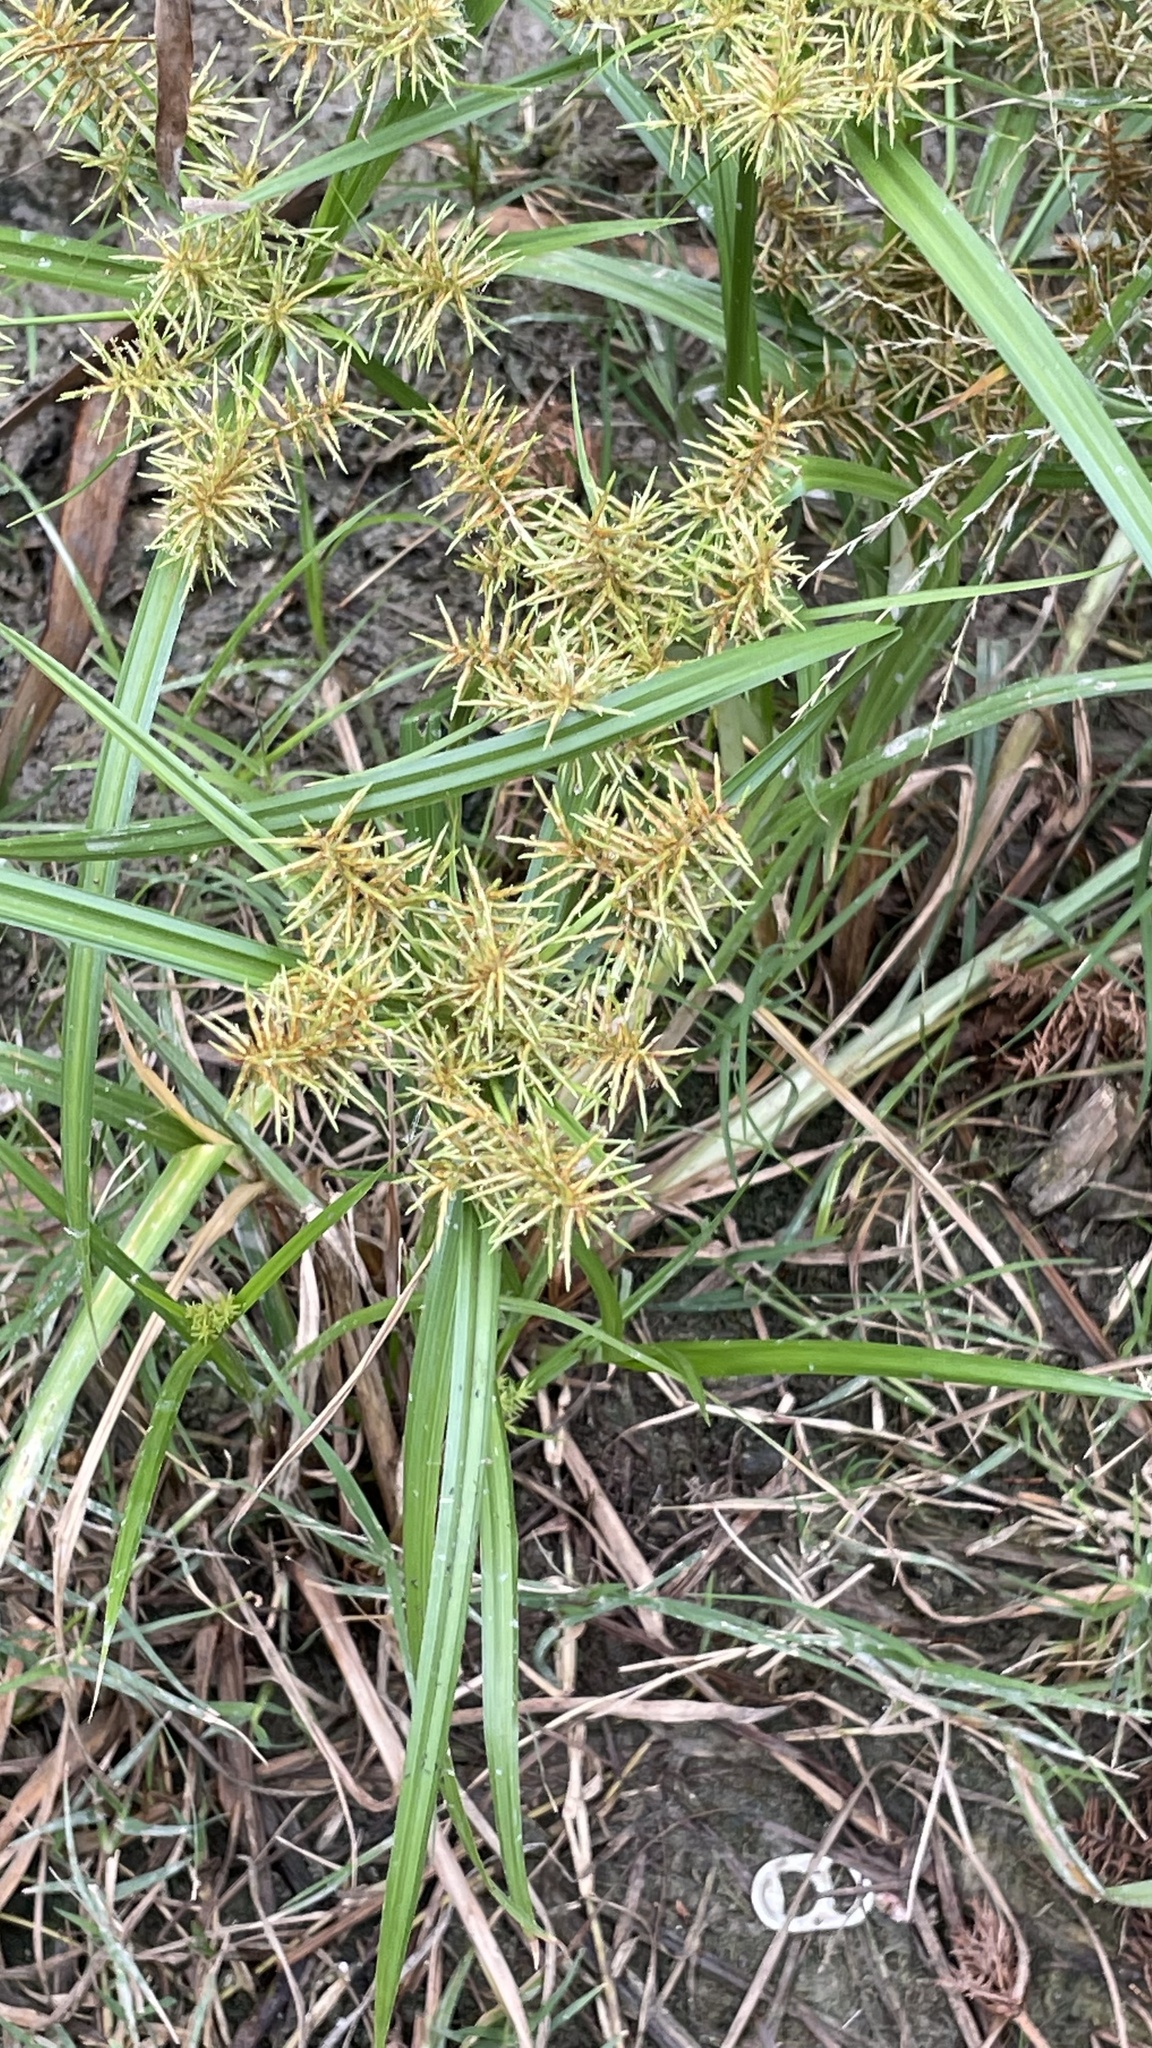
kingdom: Plantae
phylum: Tracheophyta
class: Liliopsida
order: Poales
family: Cyperaceae
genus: Cyperus
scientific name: Cyperus odoratus
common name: Fragrant flatsedge
